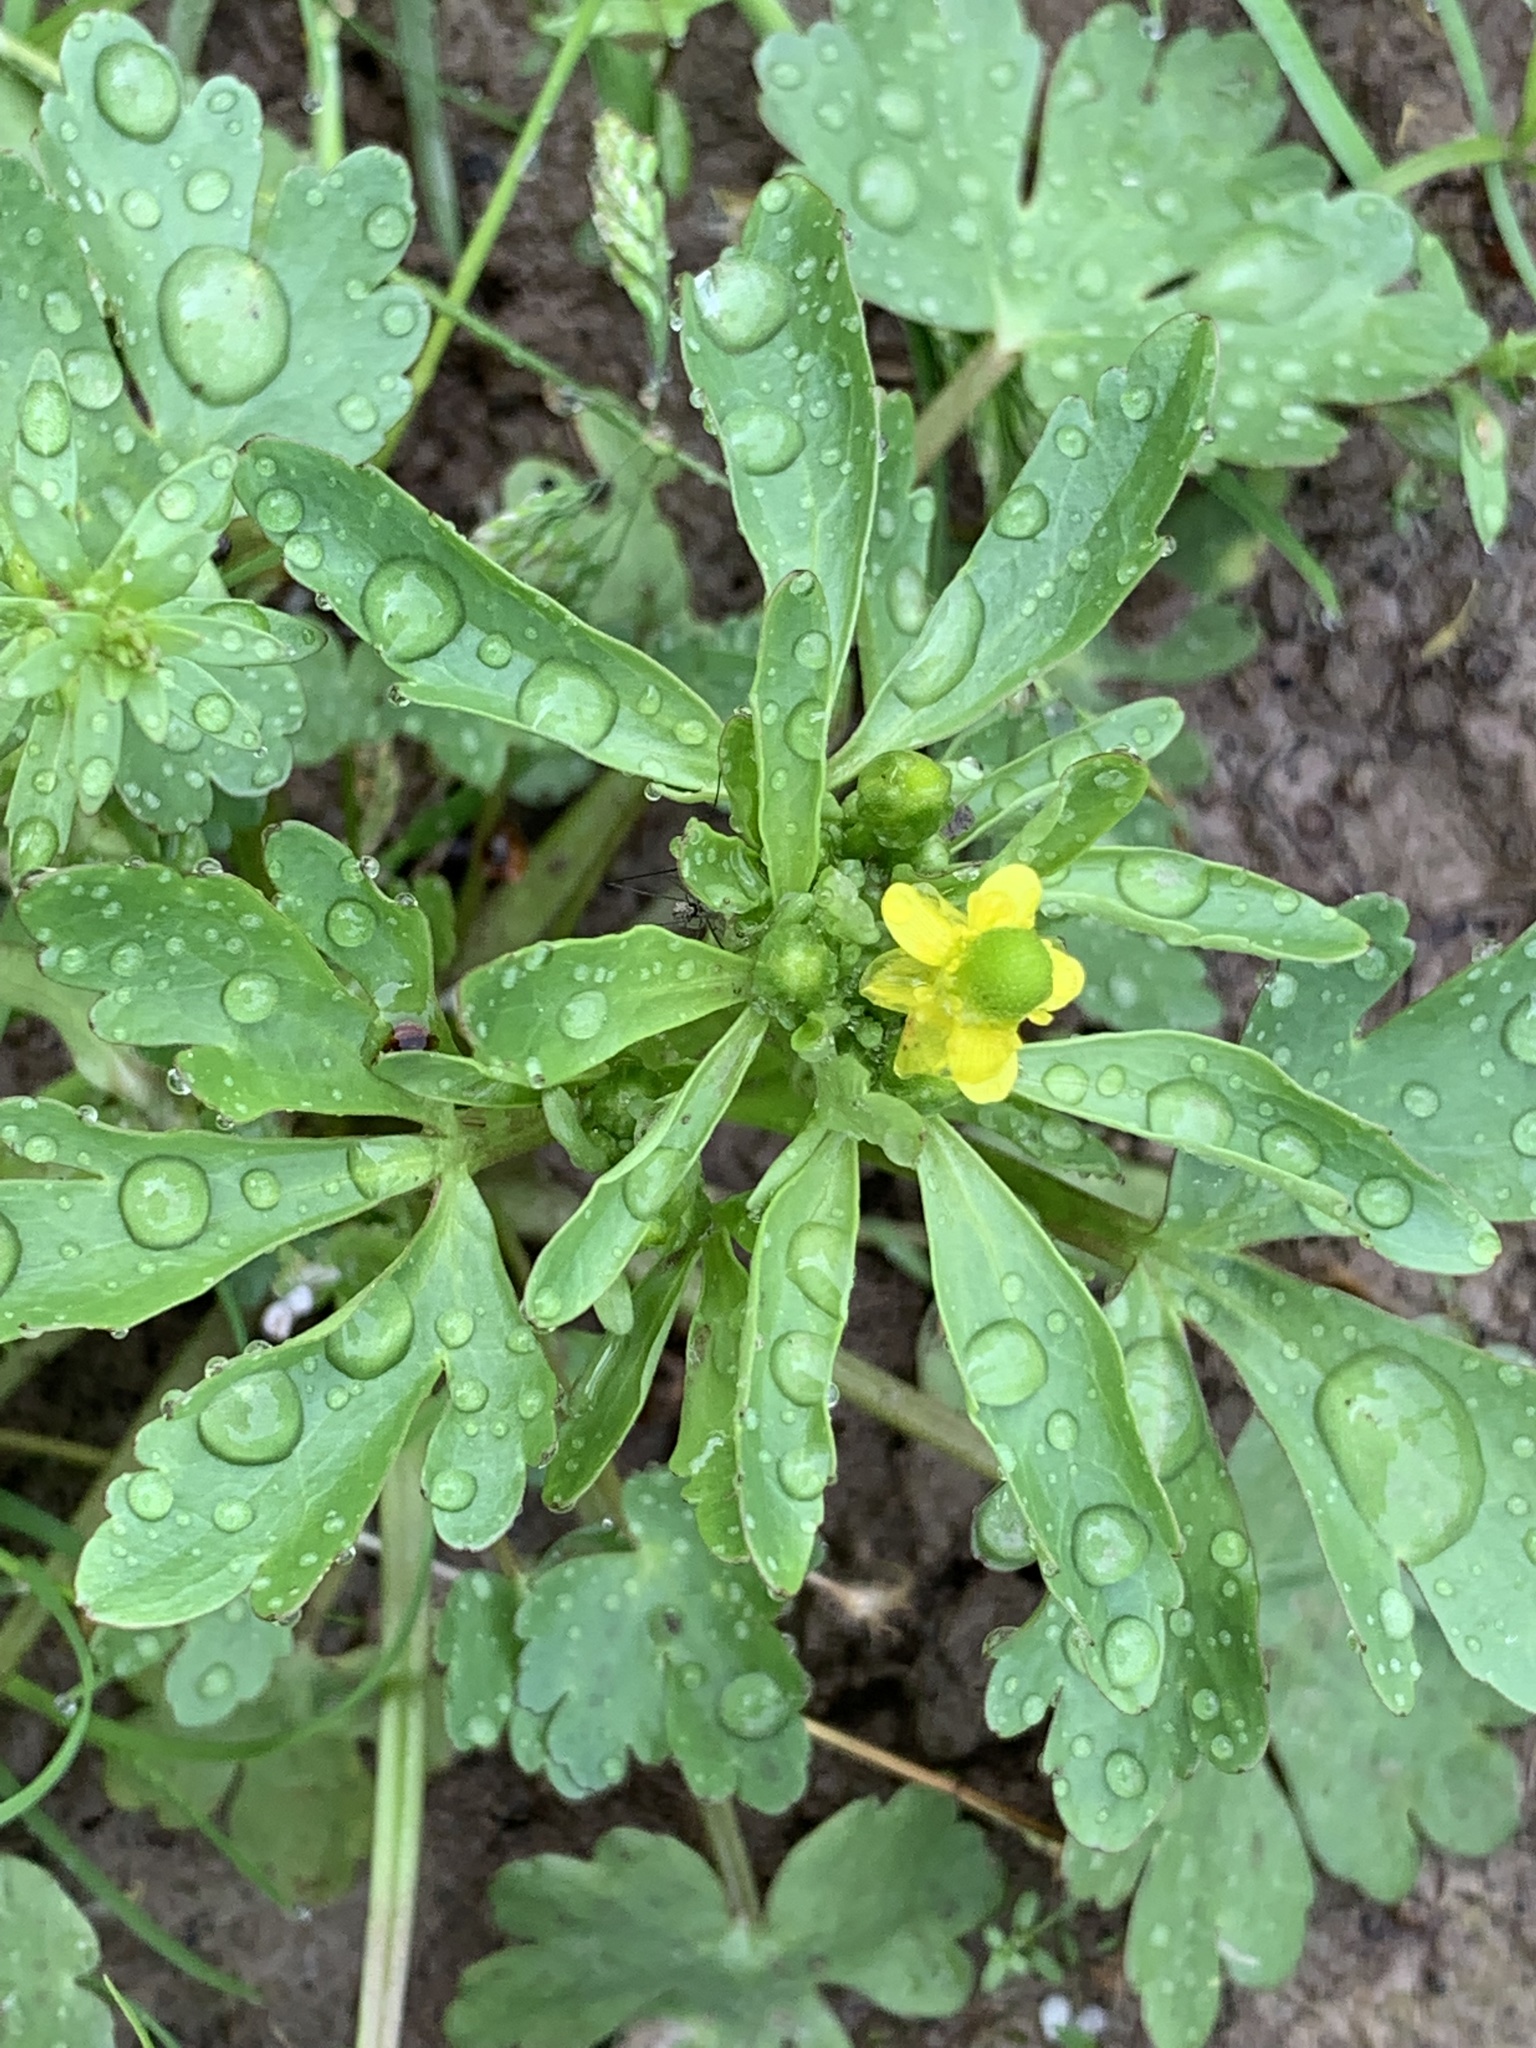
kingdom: Plantae
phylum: Tracheophyta
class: Magnoliopsida
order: Ranunculales
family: Ranunculaceae
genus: Ranunculus
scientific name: Ranunculus sceleratus
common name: Celery-leaved buttercup
